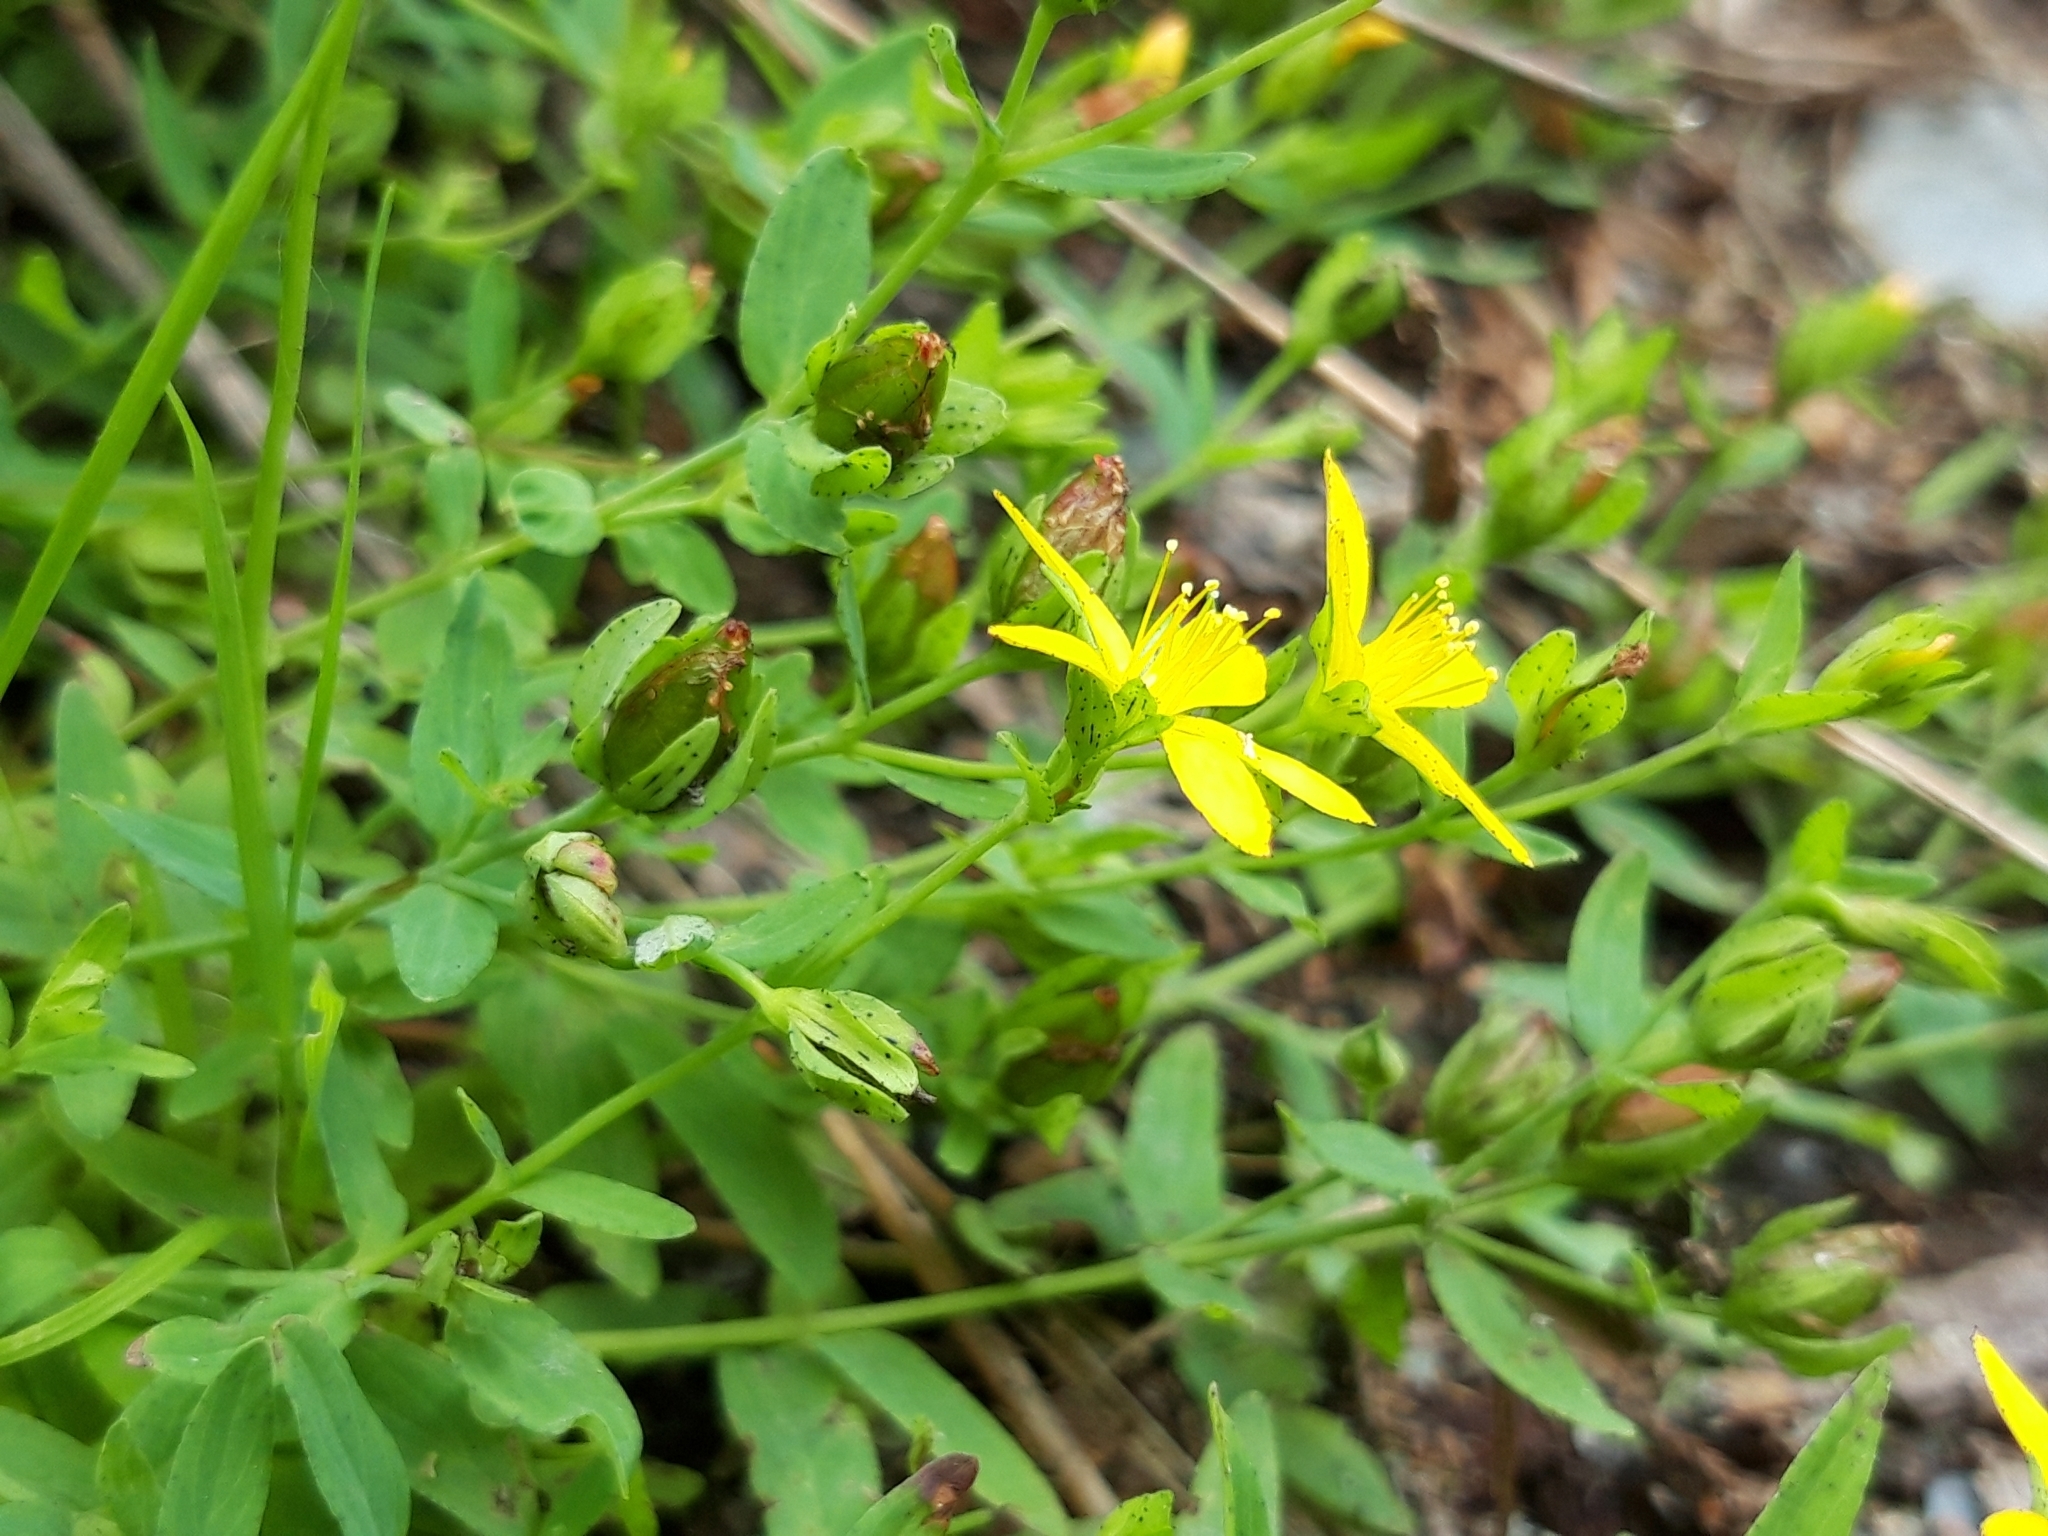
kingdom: Plantae
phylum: Tracheophyta
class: Magnoliopsida
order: Malpighiales
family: Hypericaceae
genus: Hypericum
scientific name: Hypericum humifusum
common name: Trailing st. john's-wort
